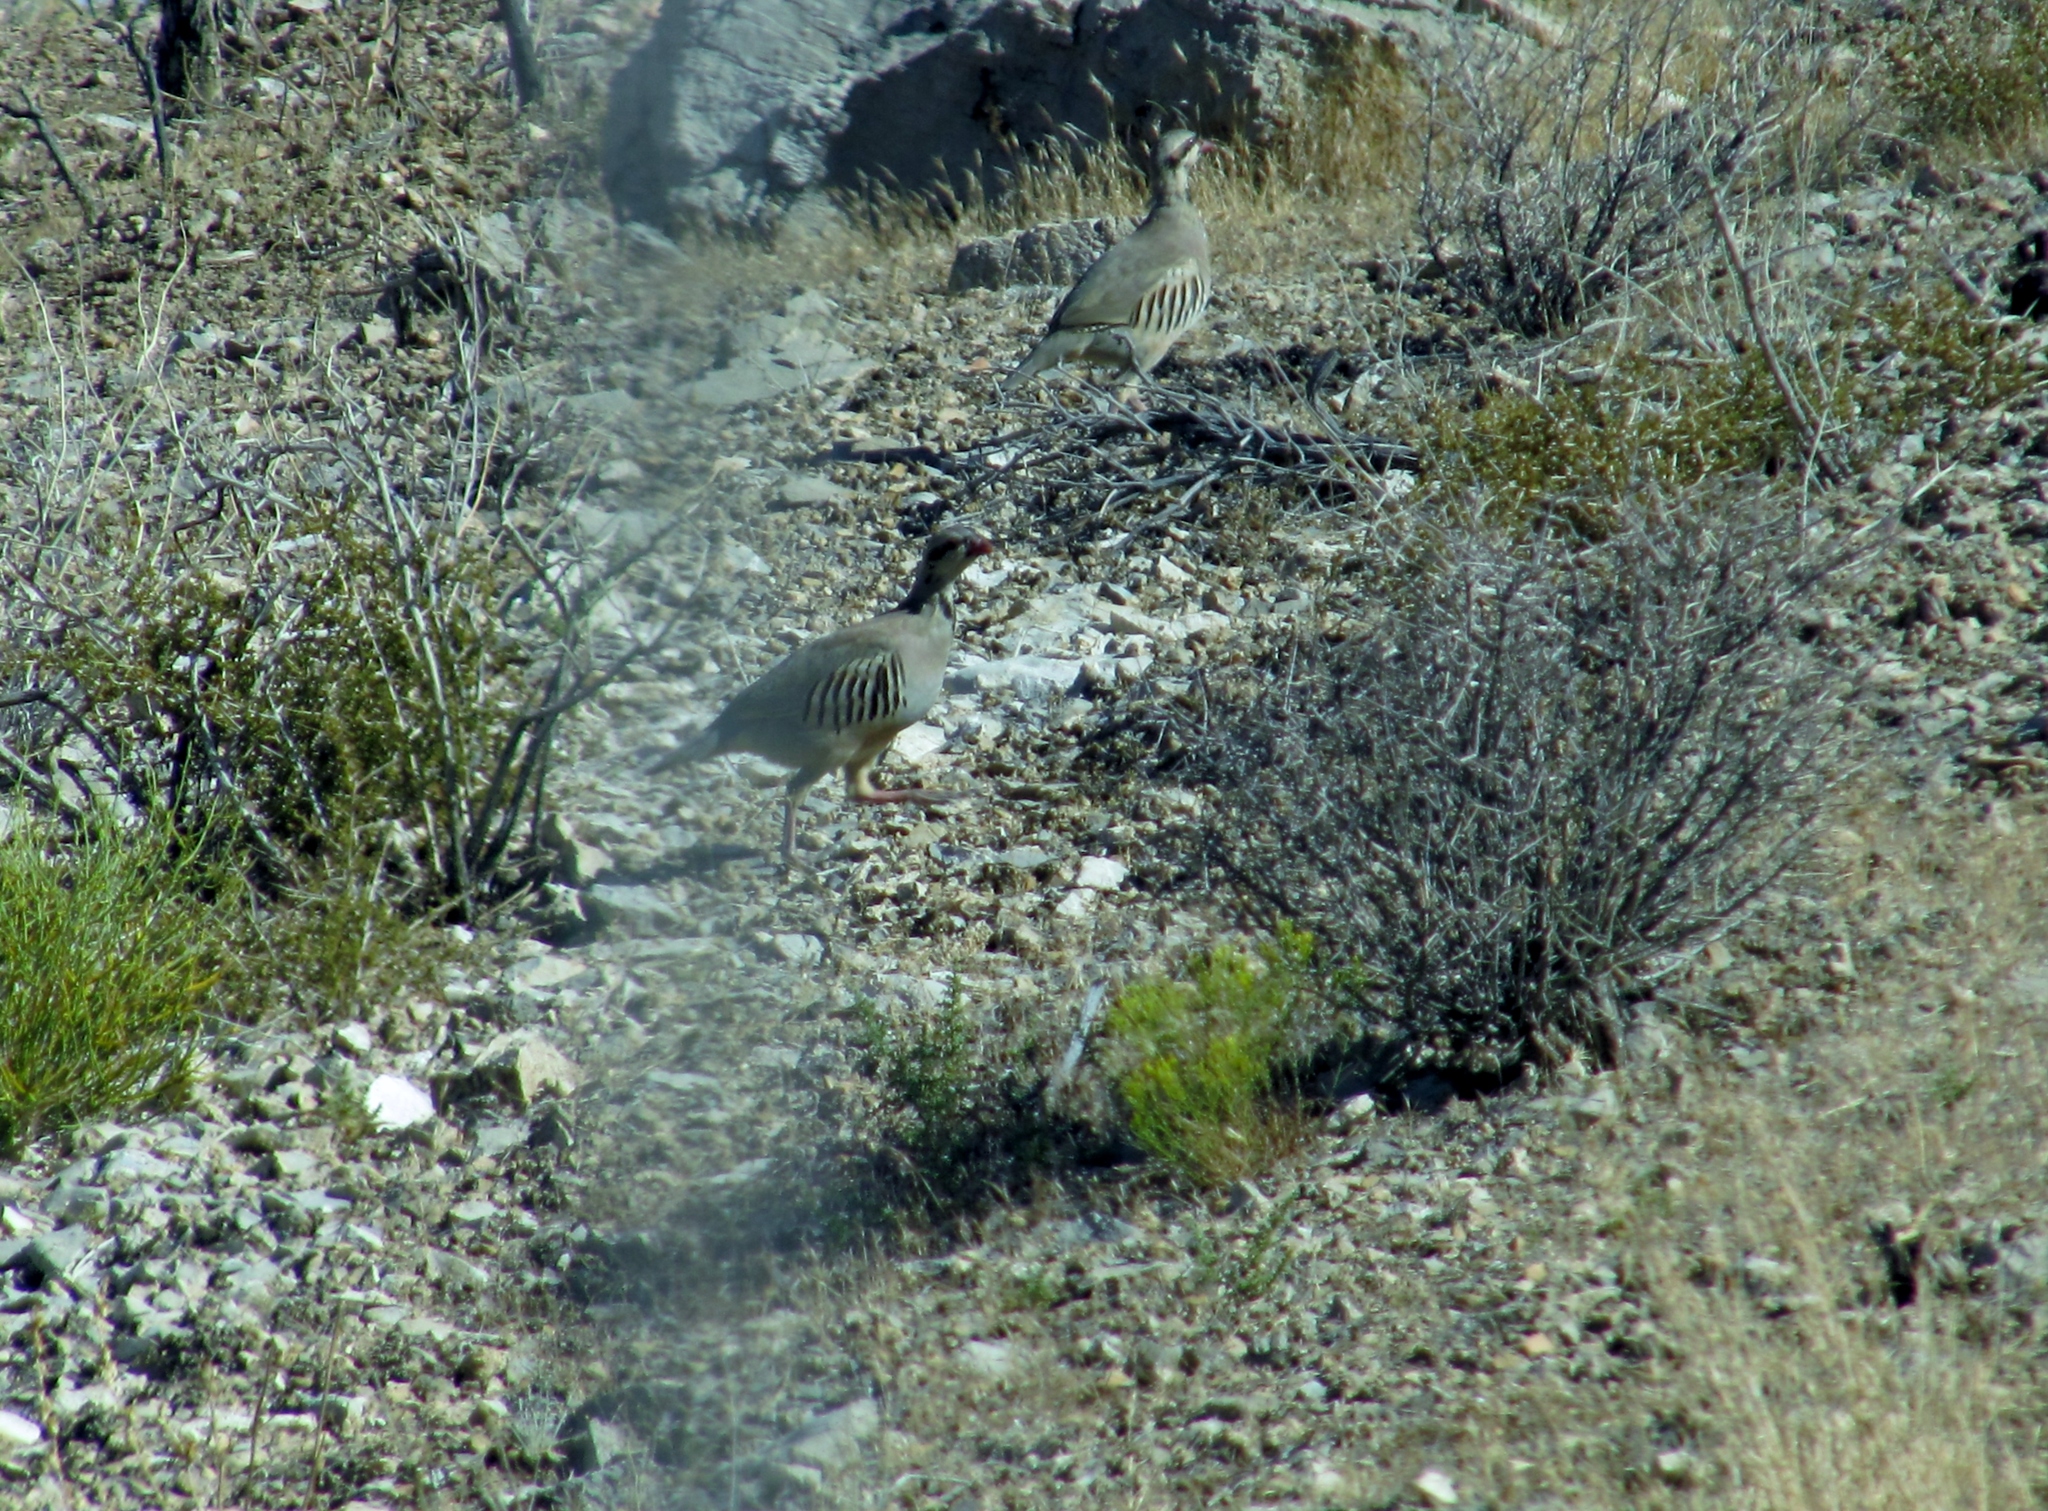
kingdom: Animalia
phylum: Chordata
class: Aves
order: Galliformes
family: Phasianidae
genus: Alectoris
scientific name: Alectoris chukar
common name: Chukar
